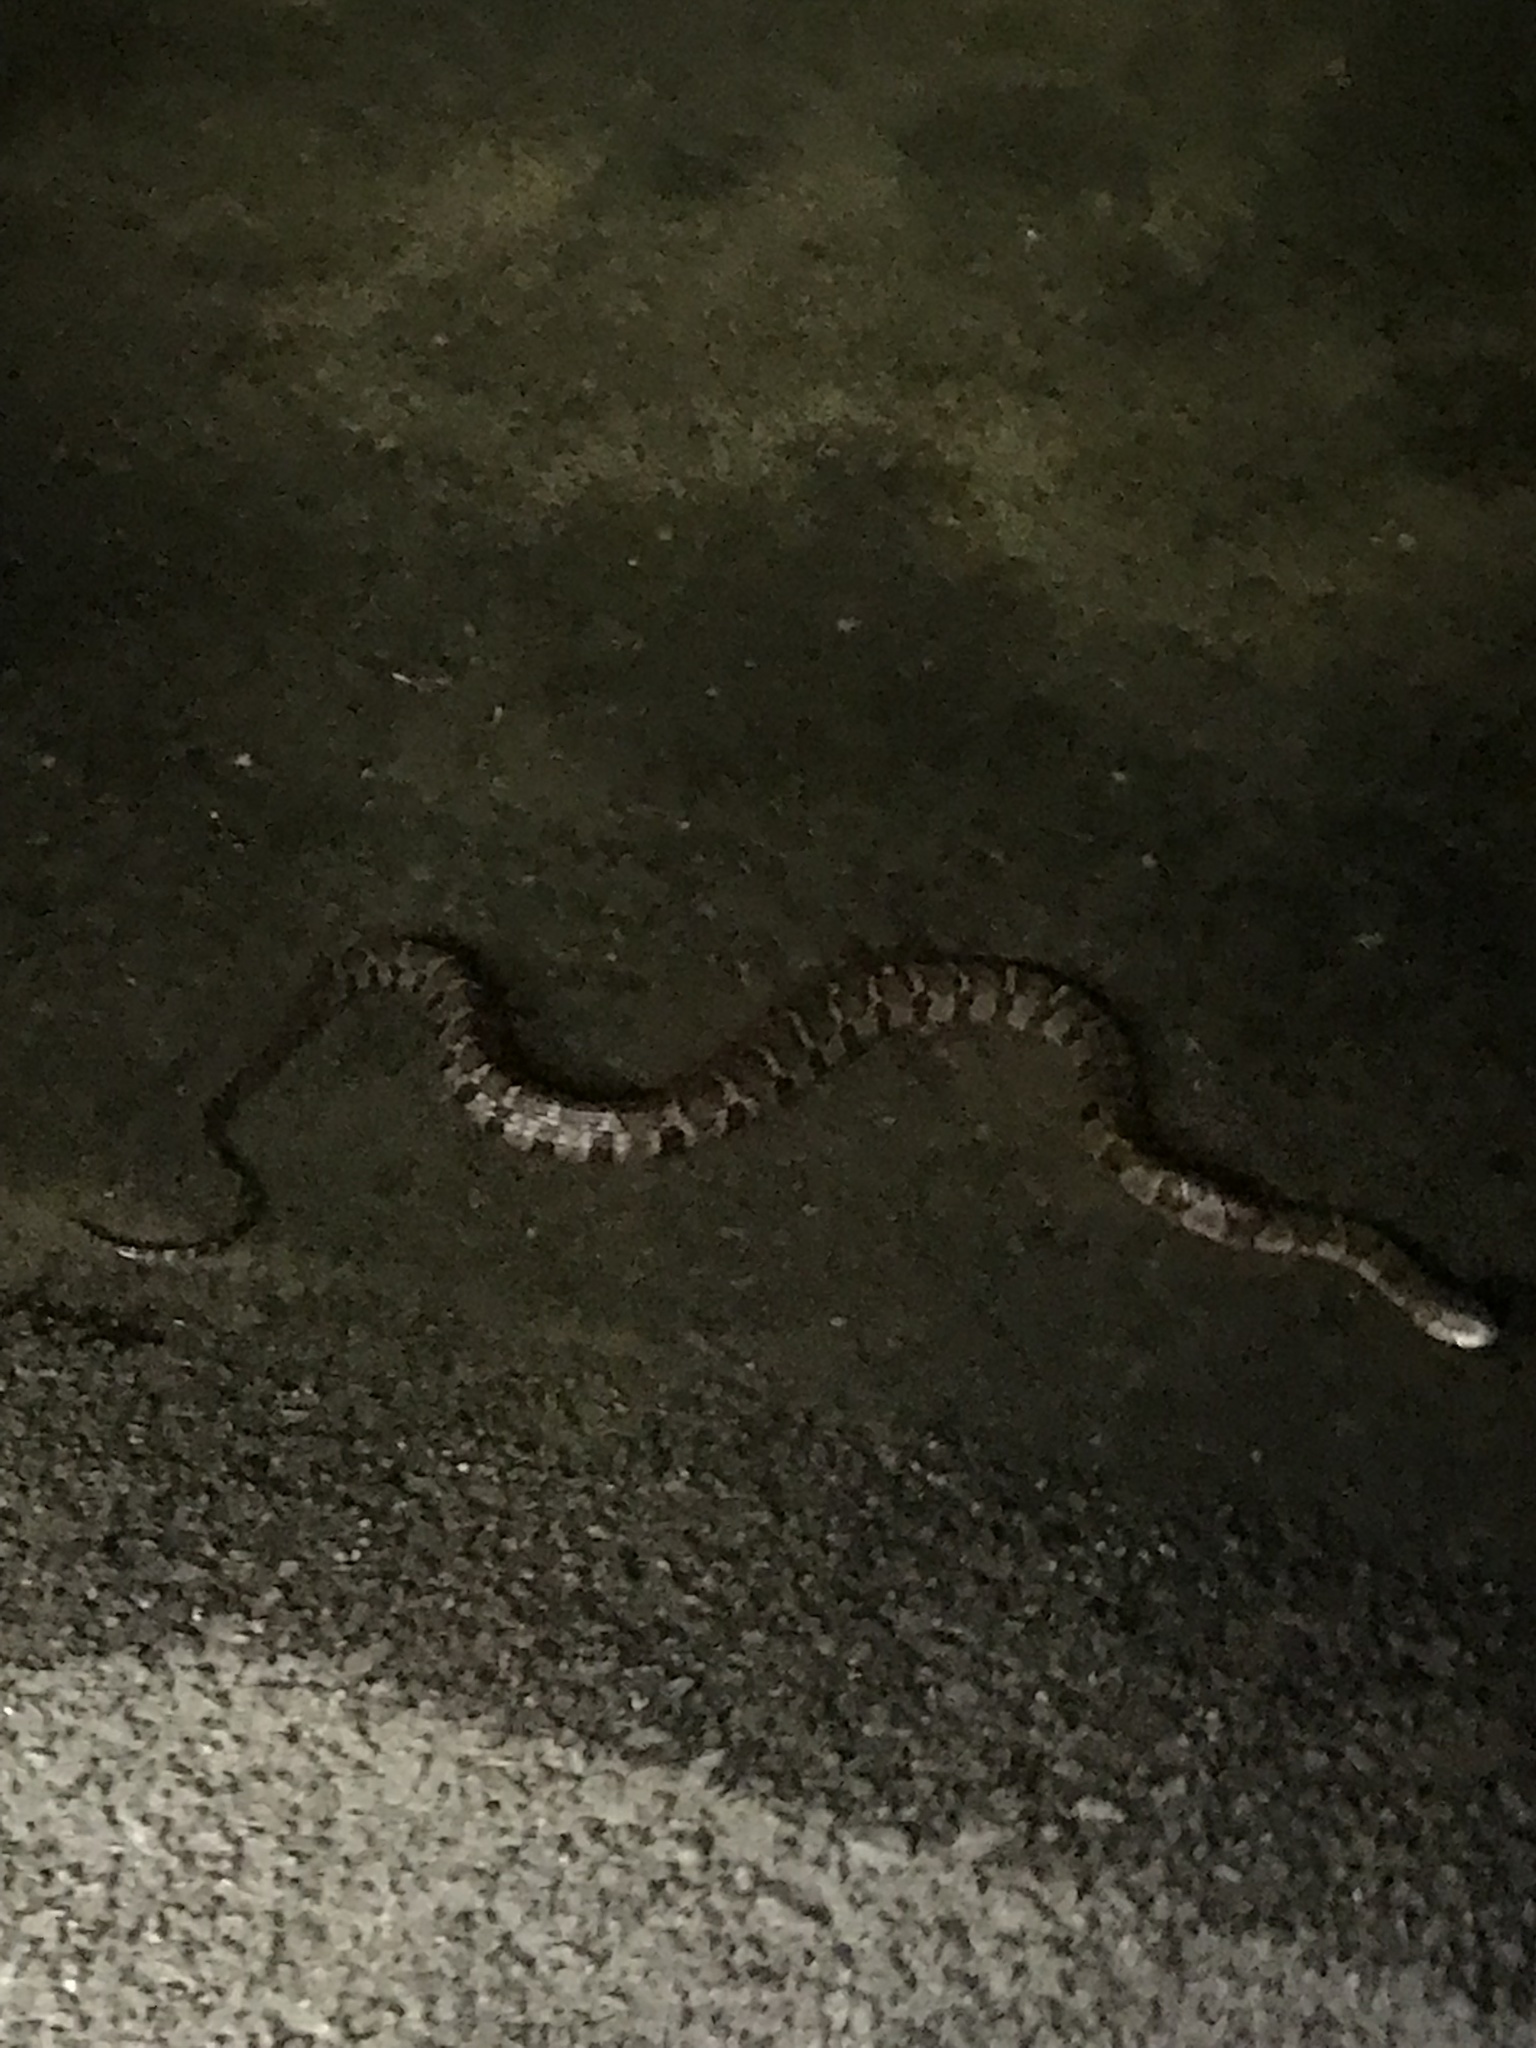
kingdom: Animalia
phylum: Chordata
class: Squamata
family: Colubridae
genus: Nerodia
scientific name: Nerodia sipedon
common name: Northern water snake
